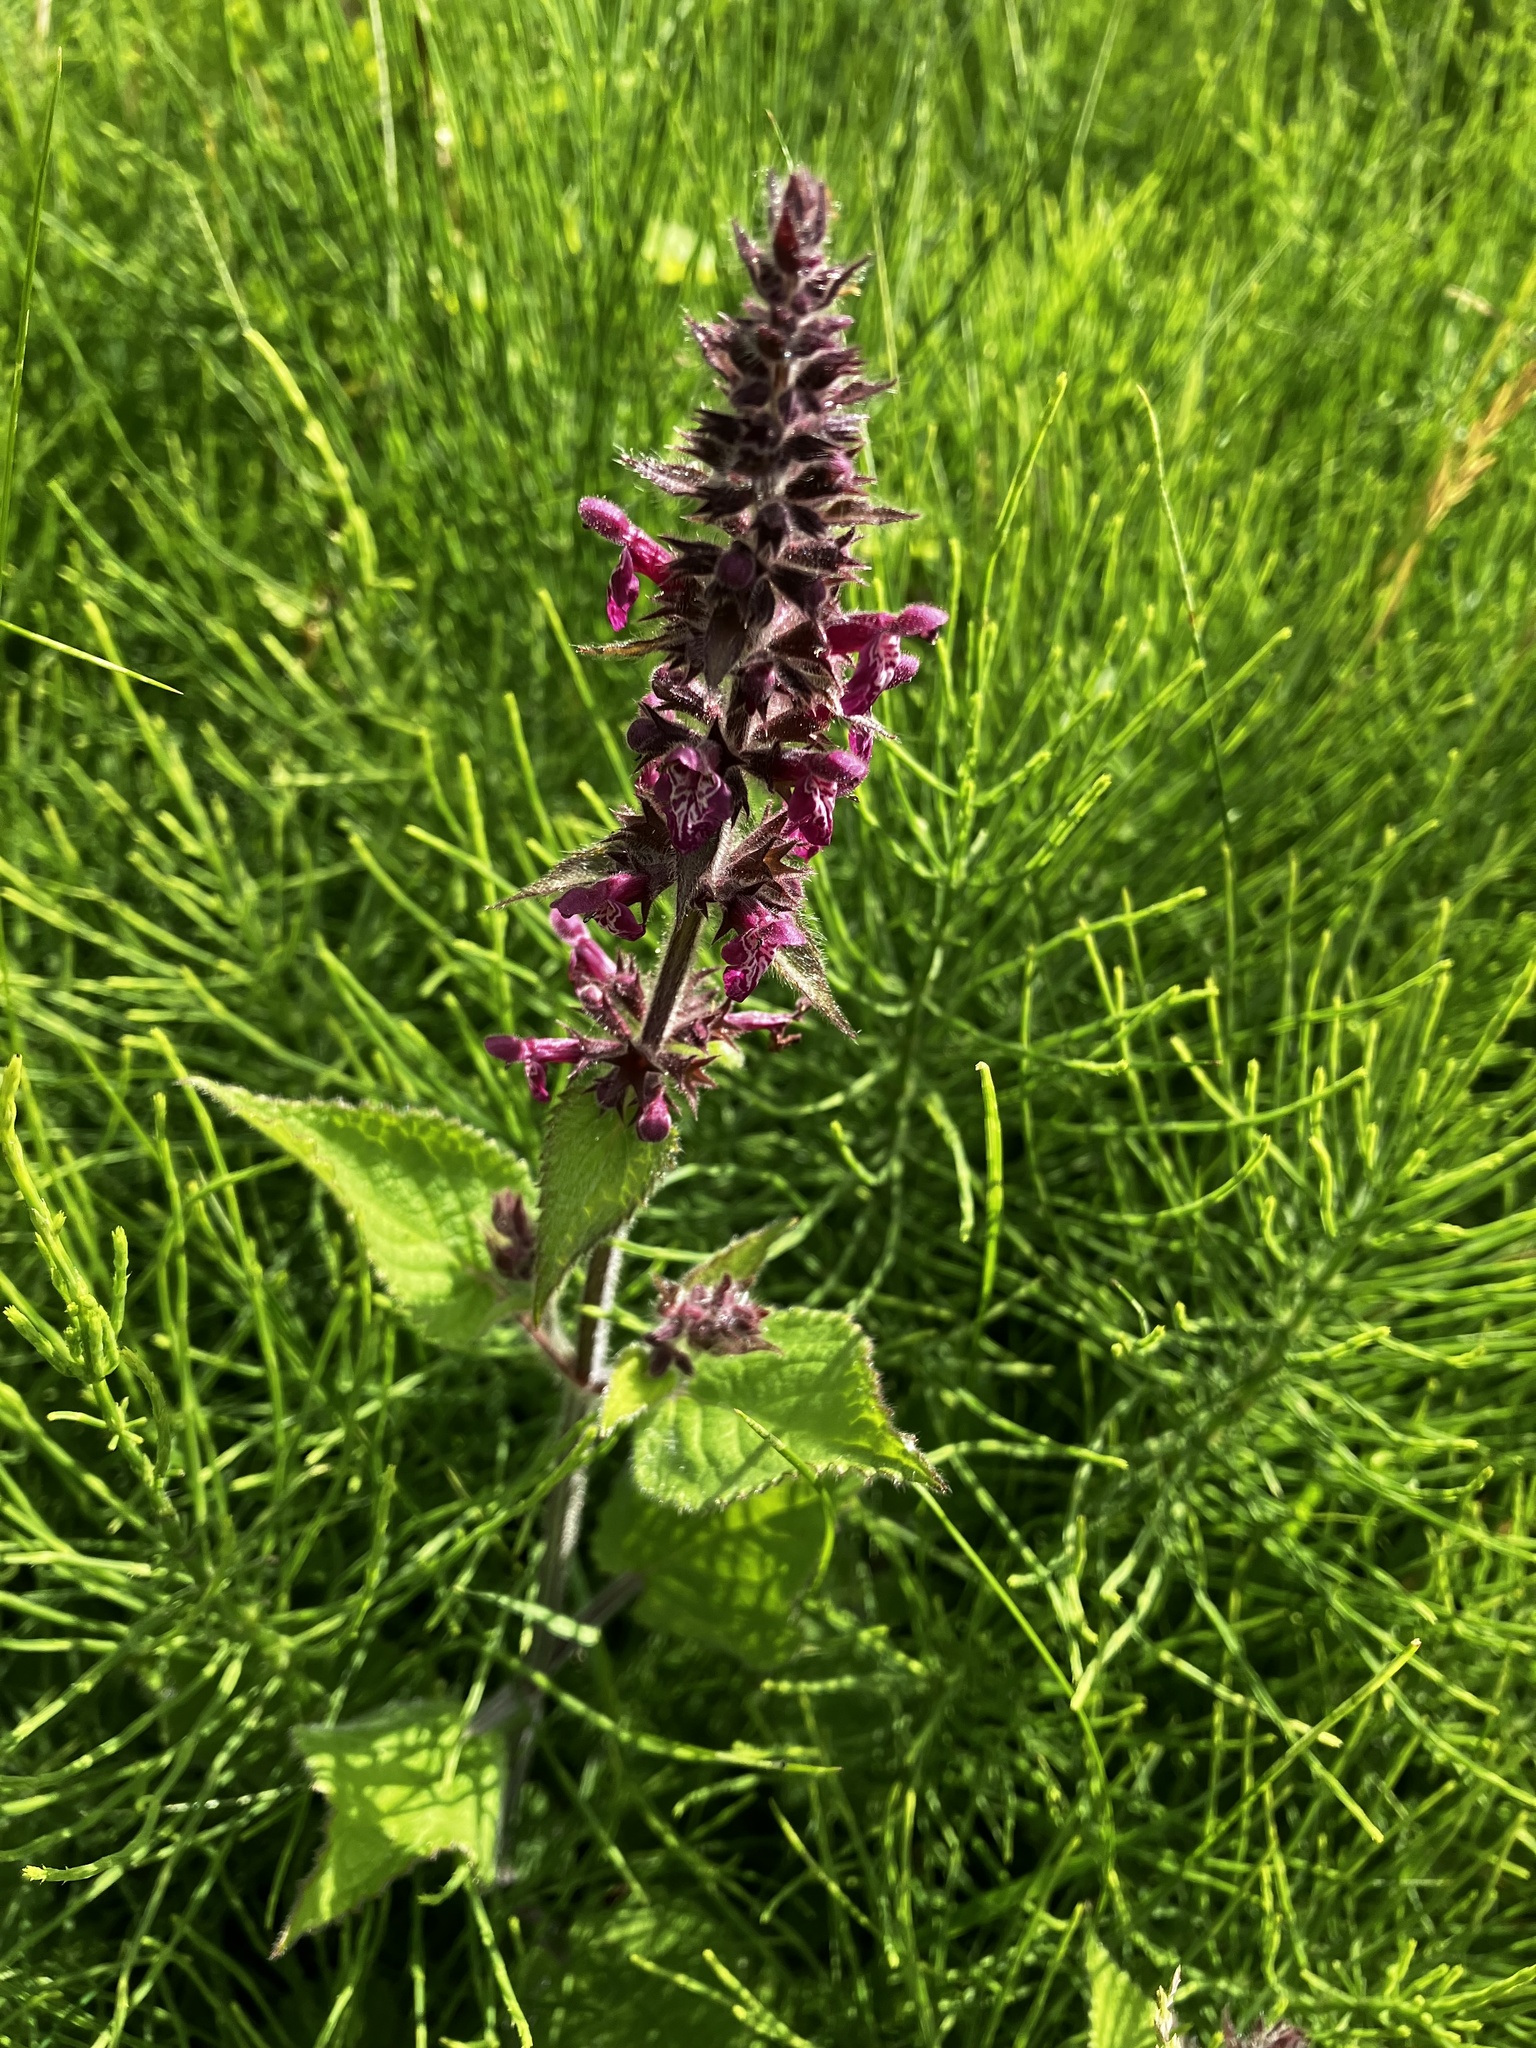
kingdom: Plantae
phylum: Tracheophyta
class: Magnoliopsida
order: Lamiales
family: Lamiaceae
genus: Stachys
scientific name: Stachys sylvatica
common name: Hedge woundwort
